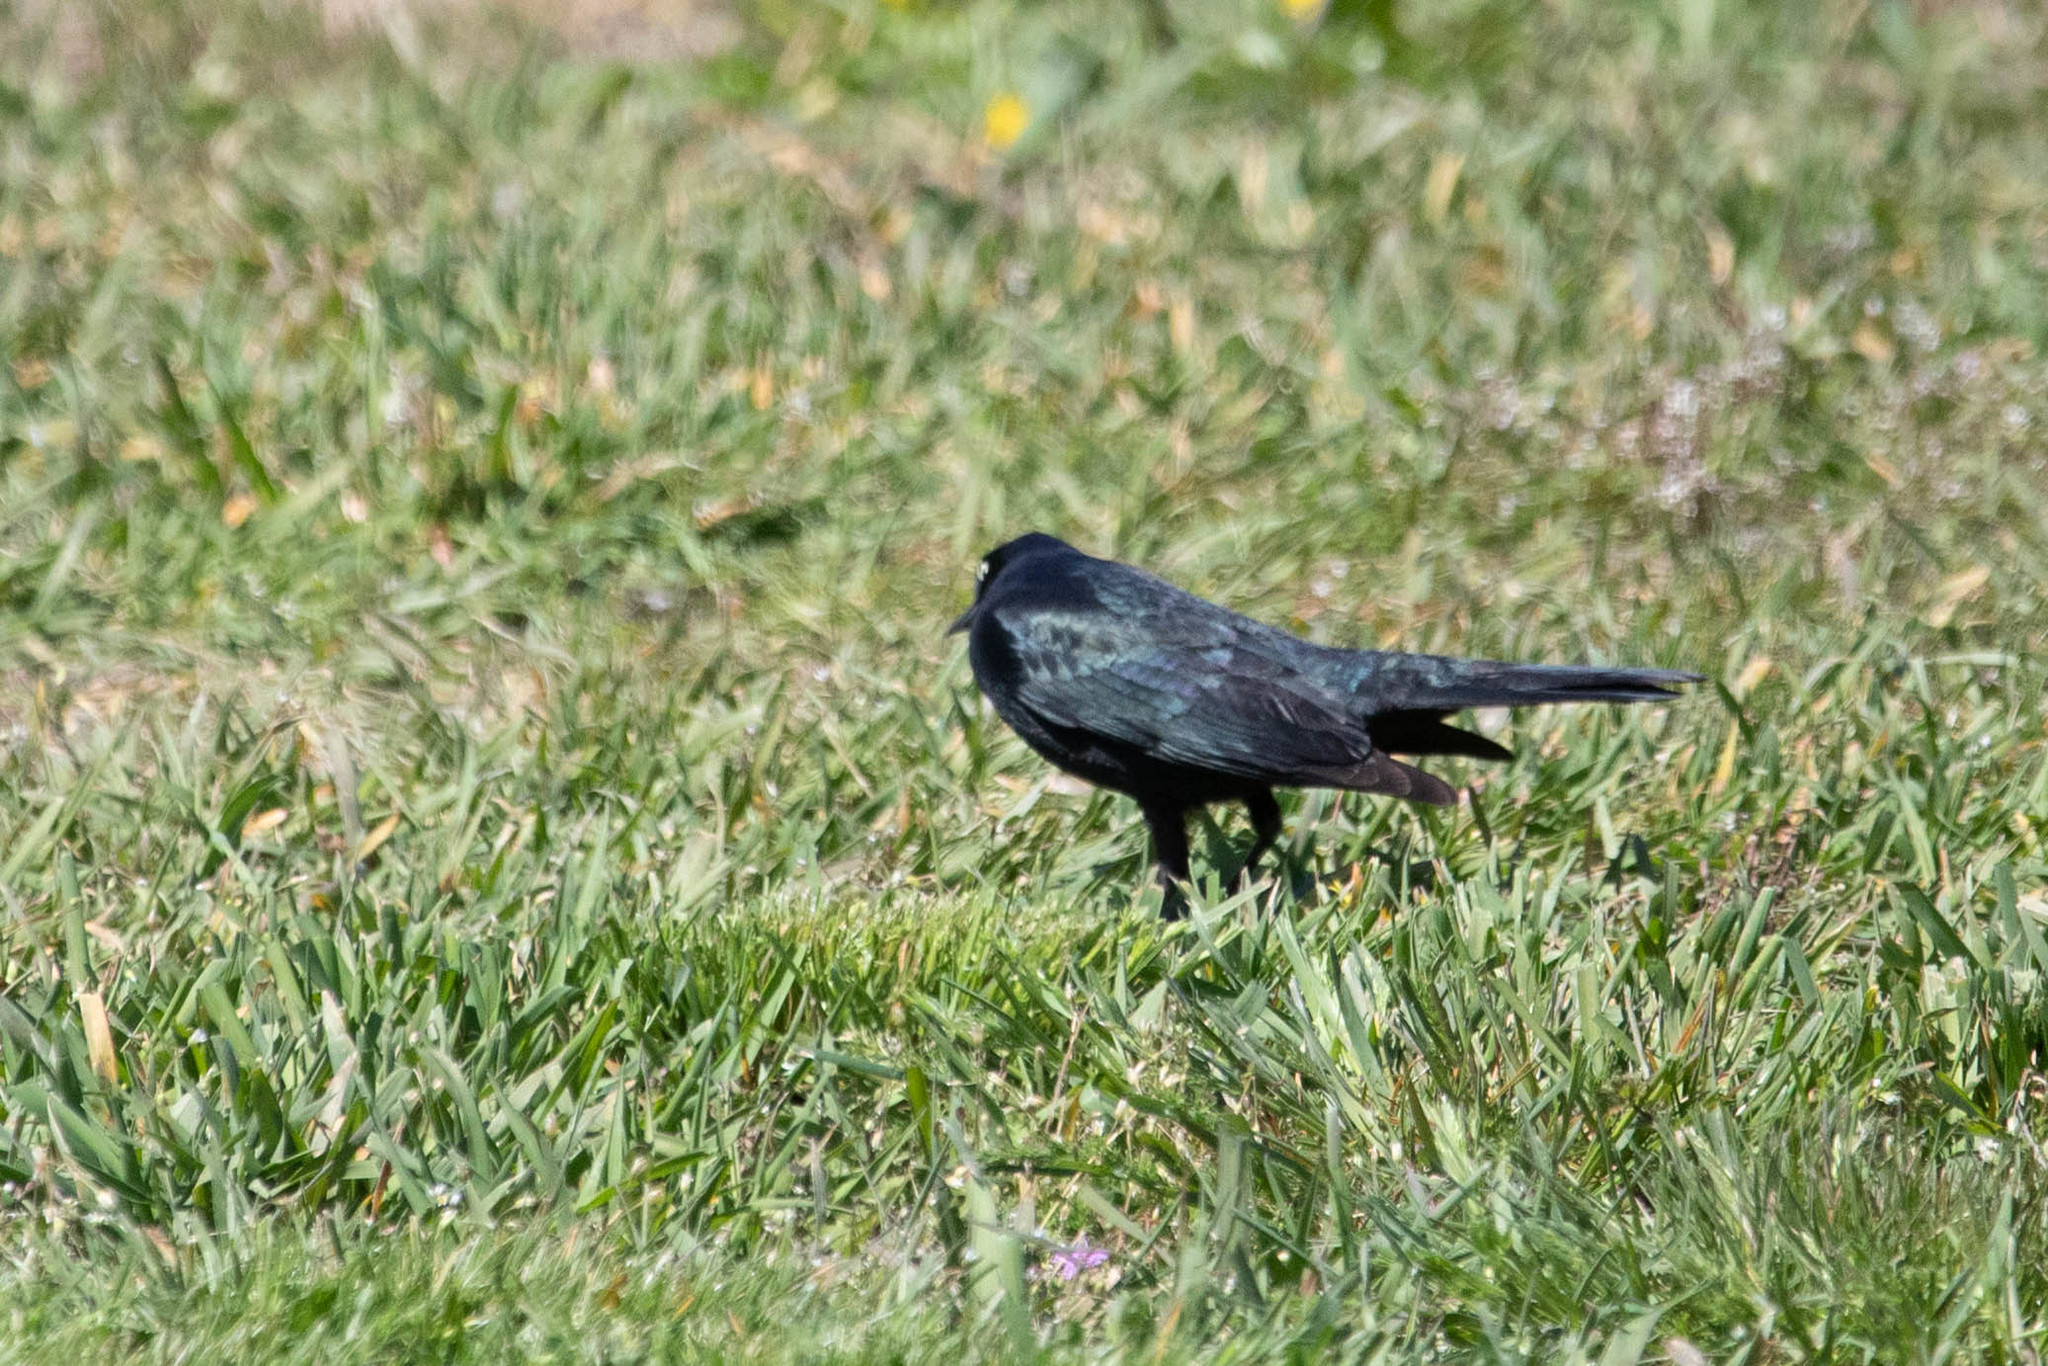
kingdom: Animalia
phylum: Chordata
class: Aves
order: Passeriformes
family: Icteridae
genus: Euphagus
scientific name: Euphagus cyanocephalus
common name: Brewer's blackbird
